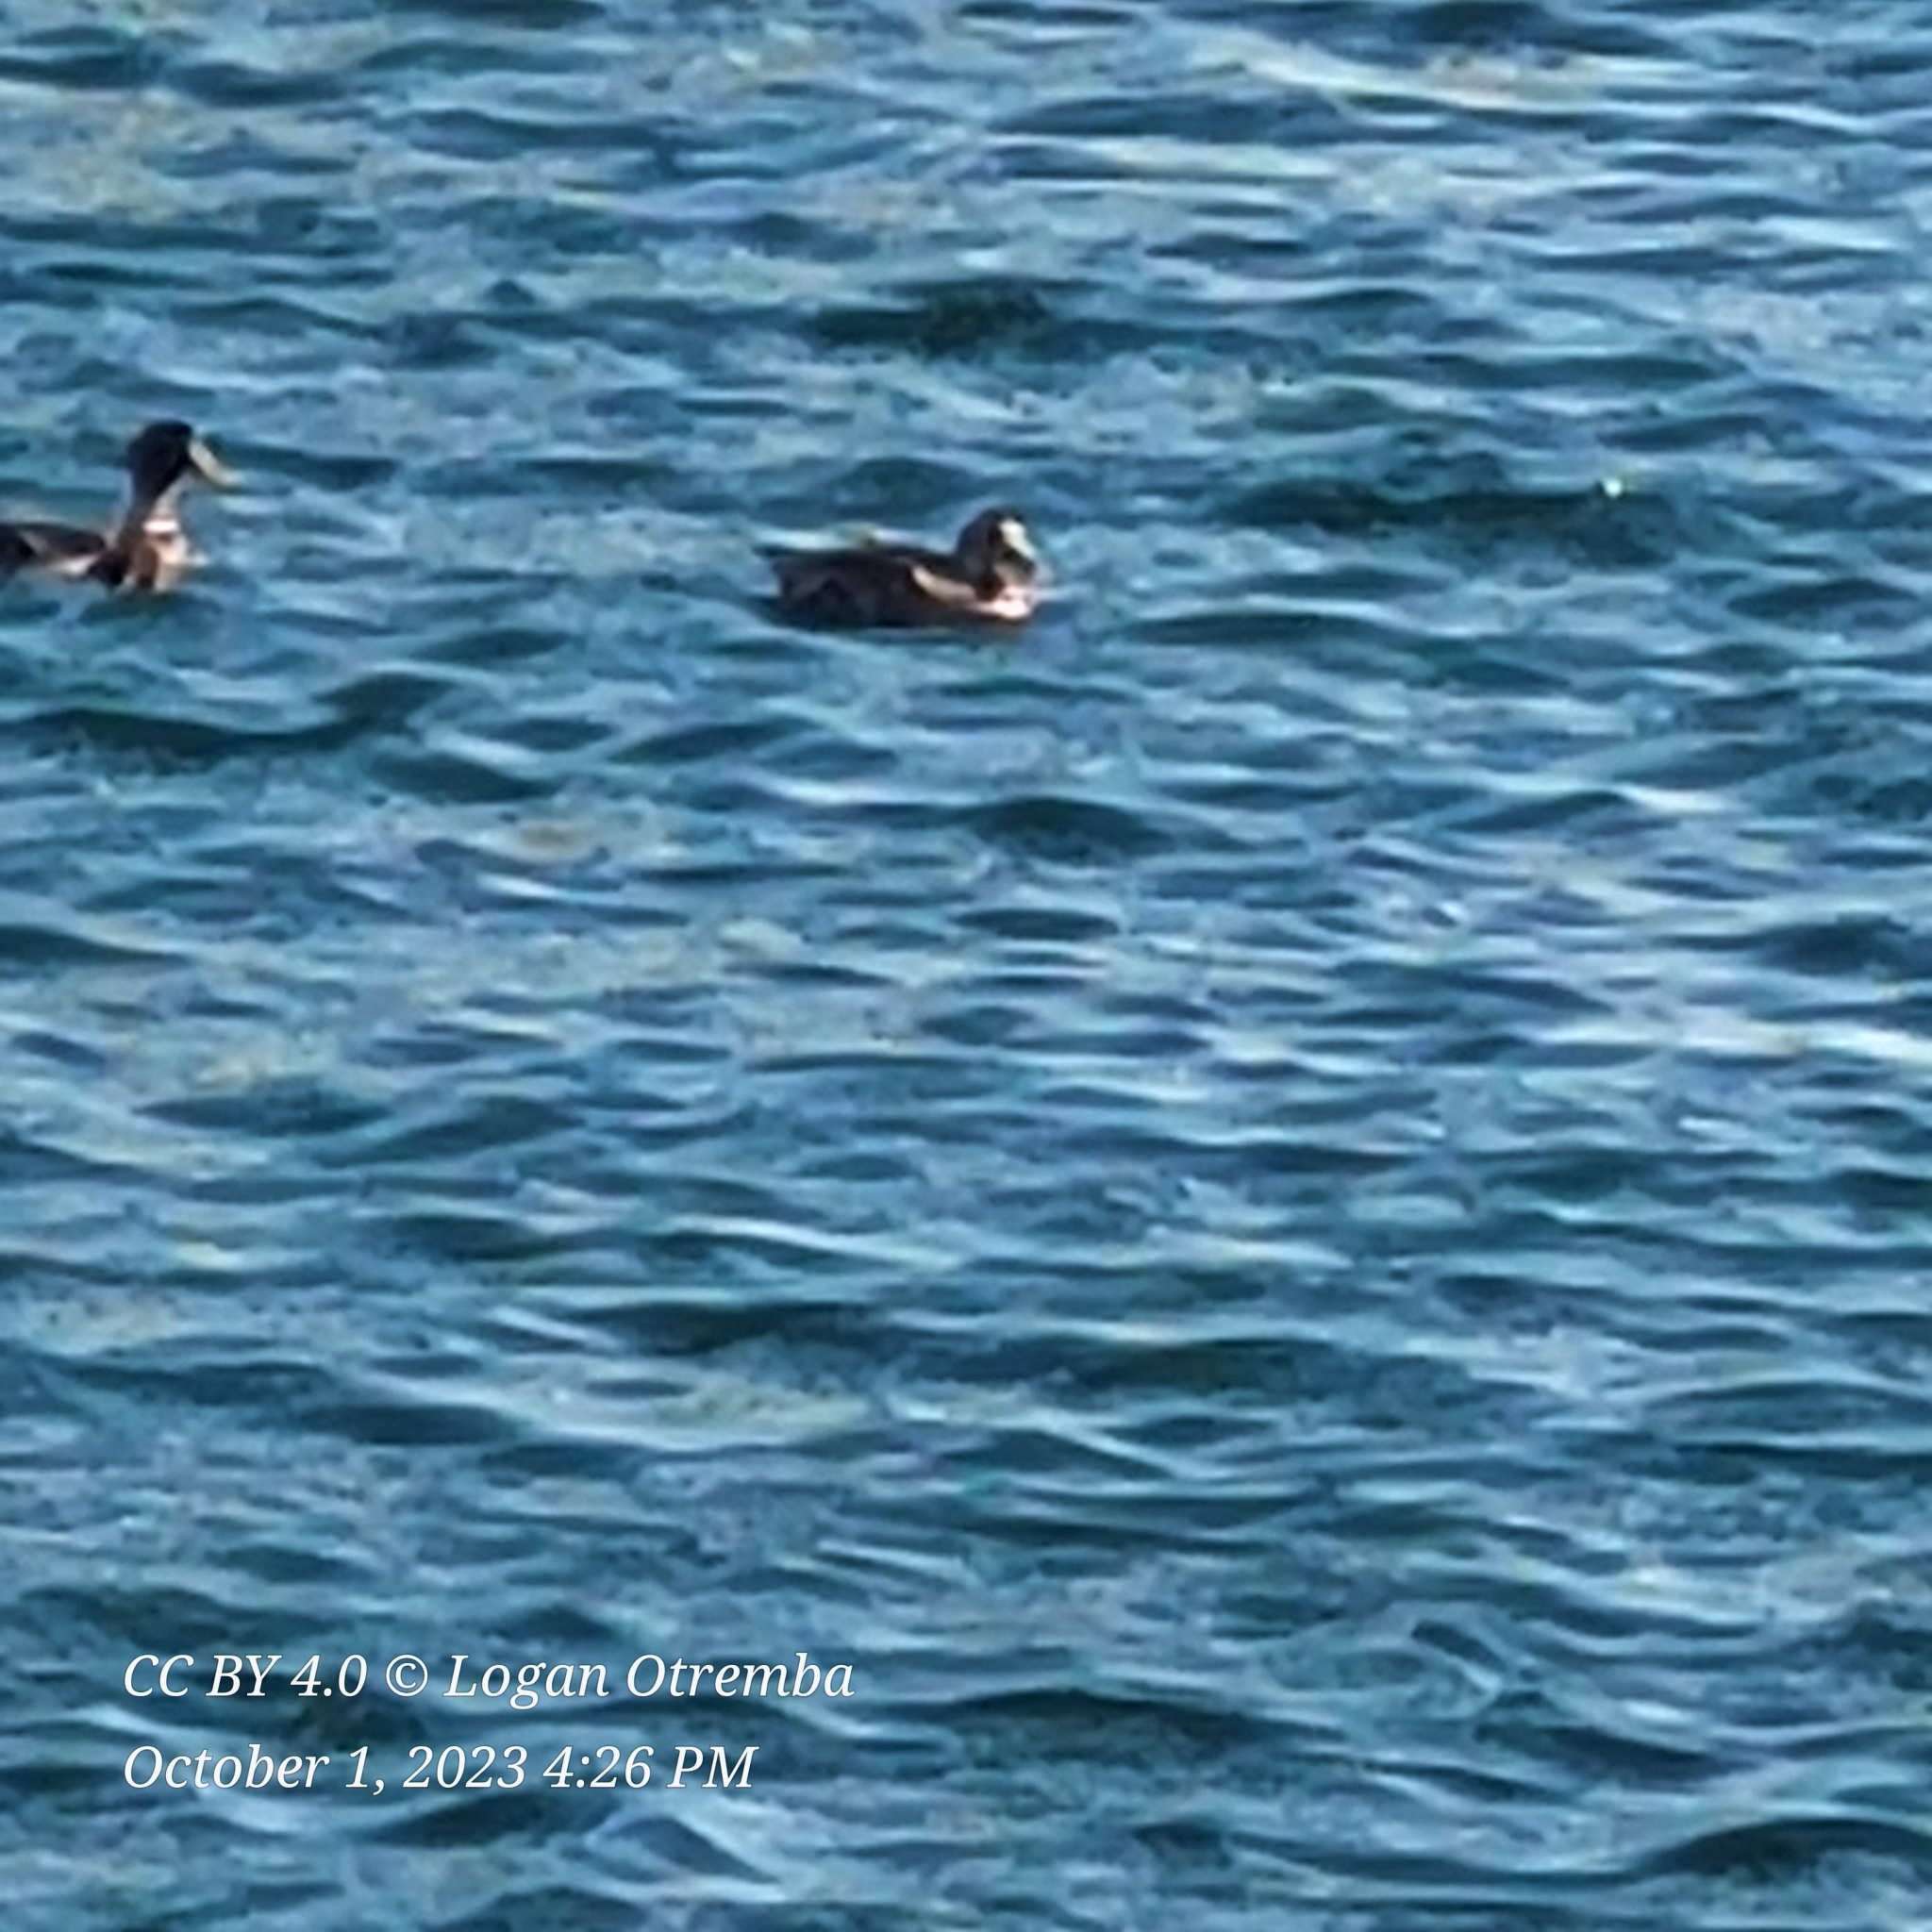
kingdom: Animalia
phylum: Chordata
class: Aves
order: Anseriformes
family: Anatidae
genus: Anas
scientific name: Anas platyrhynchos
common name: Mallard
